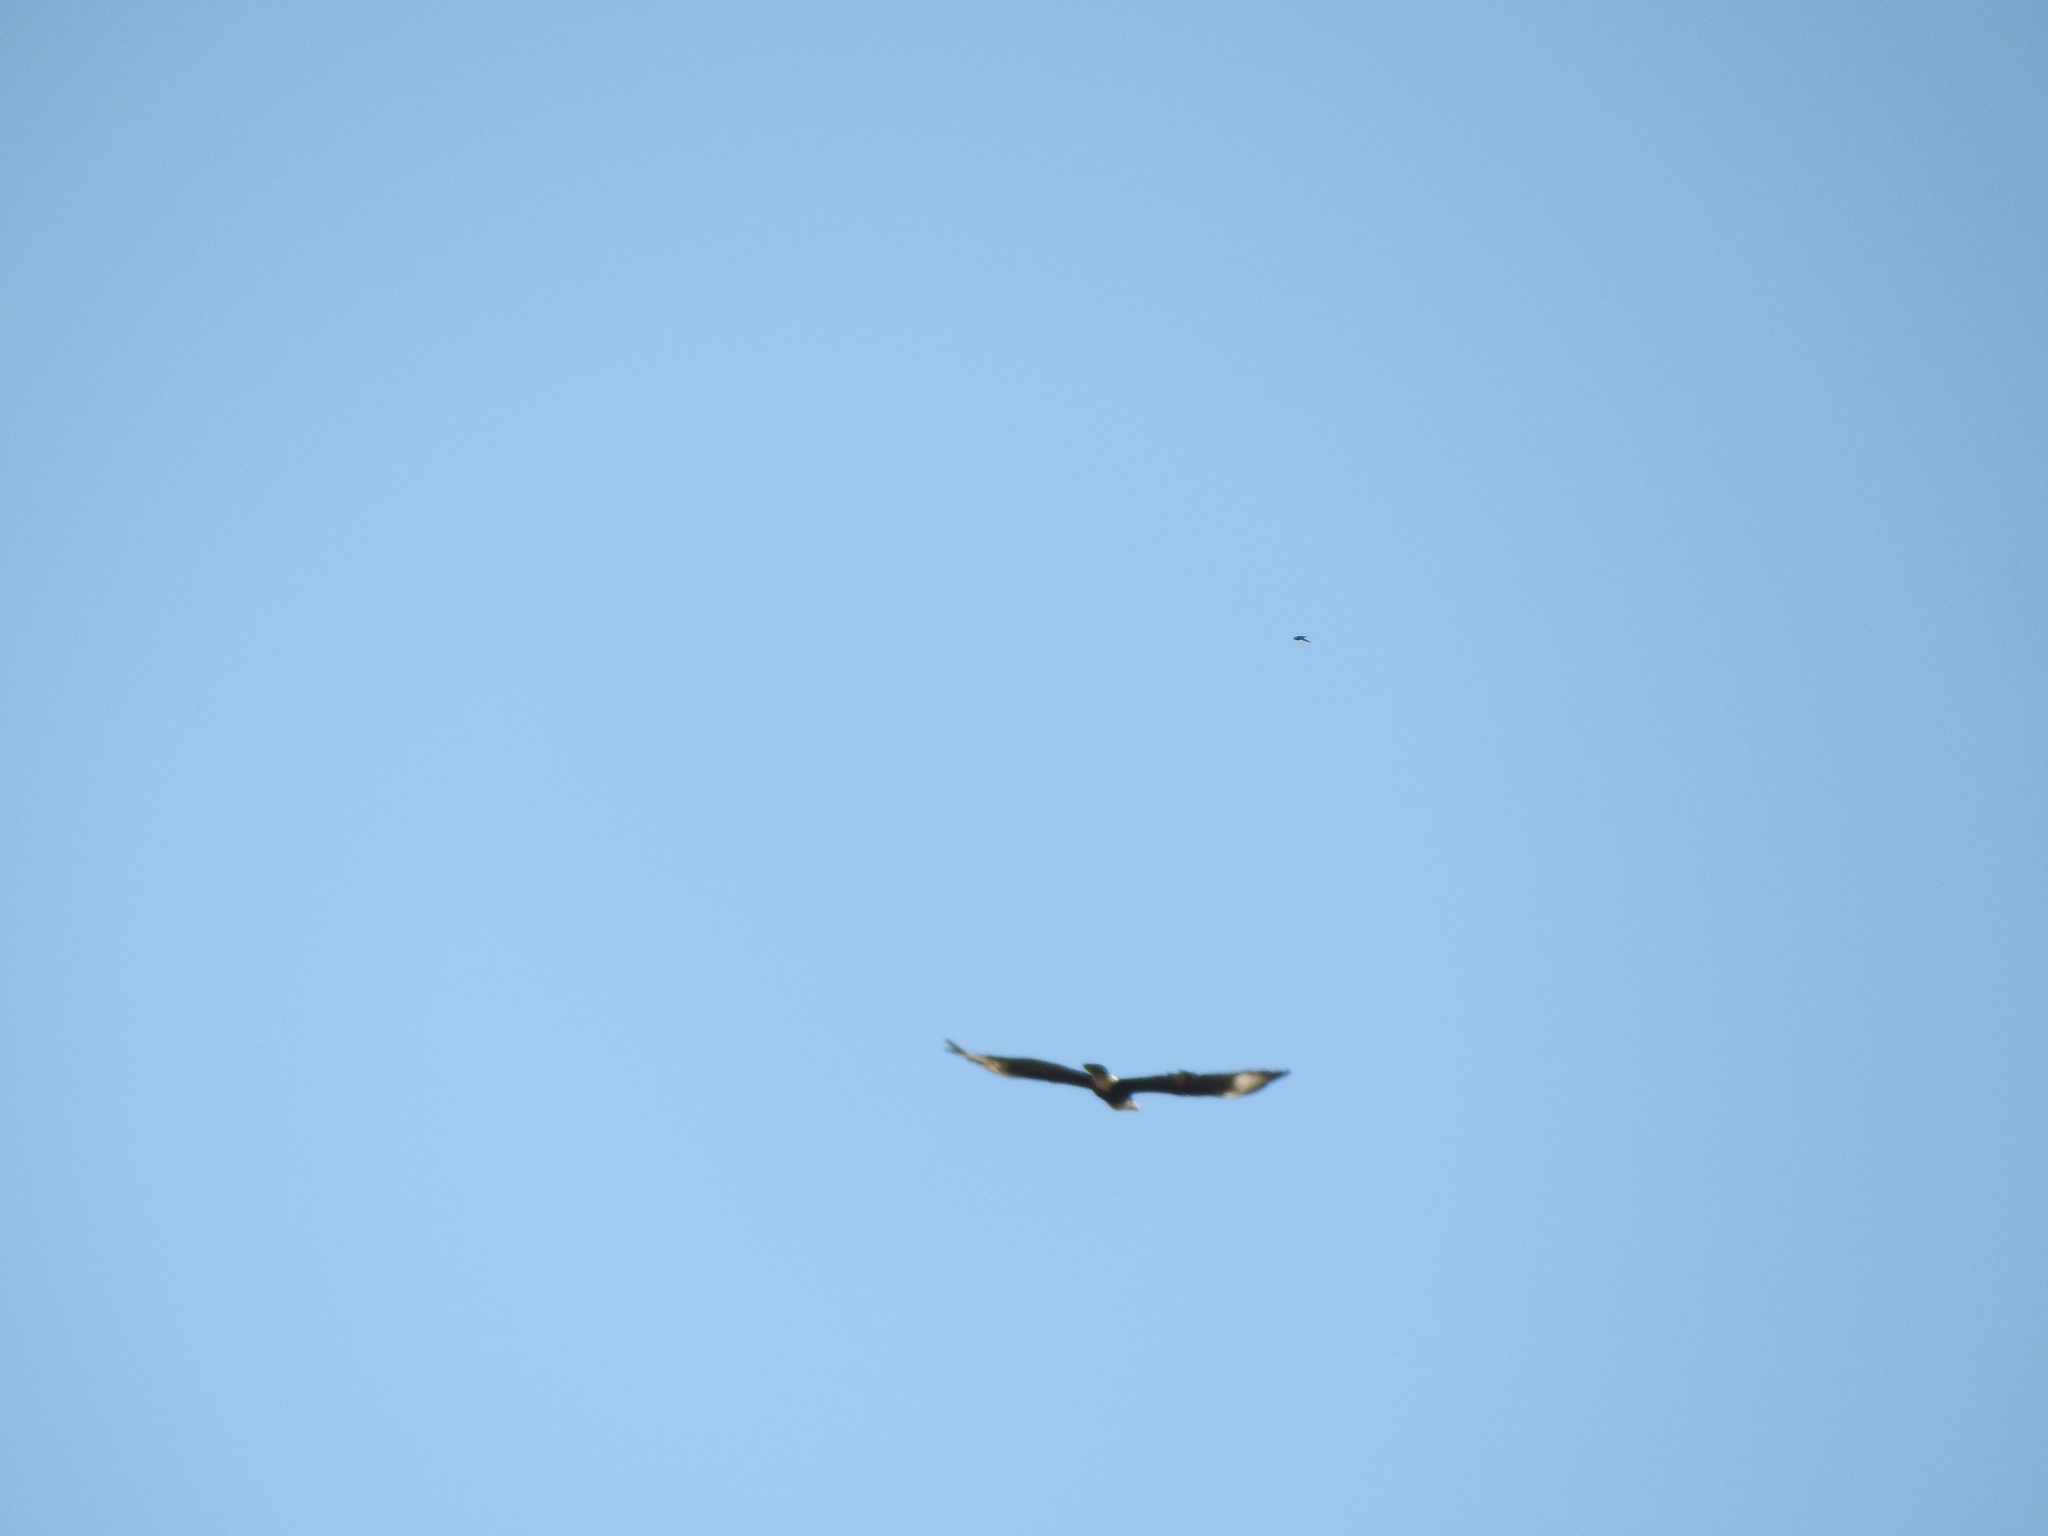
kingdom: Animalia
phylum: Chordata
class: Aves
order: Falconiformes
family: Falconidae
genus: Caracara
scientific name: Caracara plancus
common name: Southern caracara
